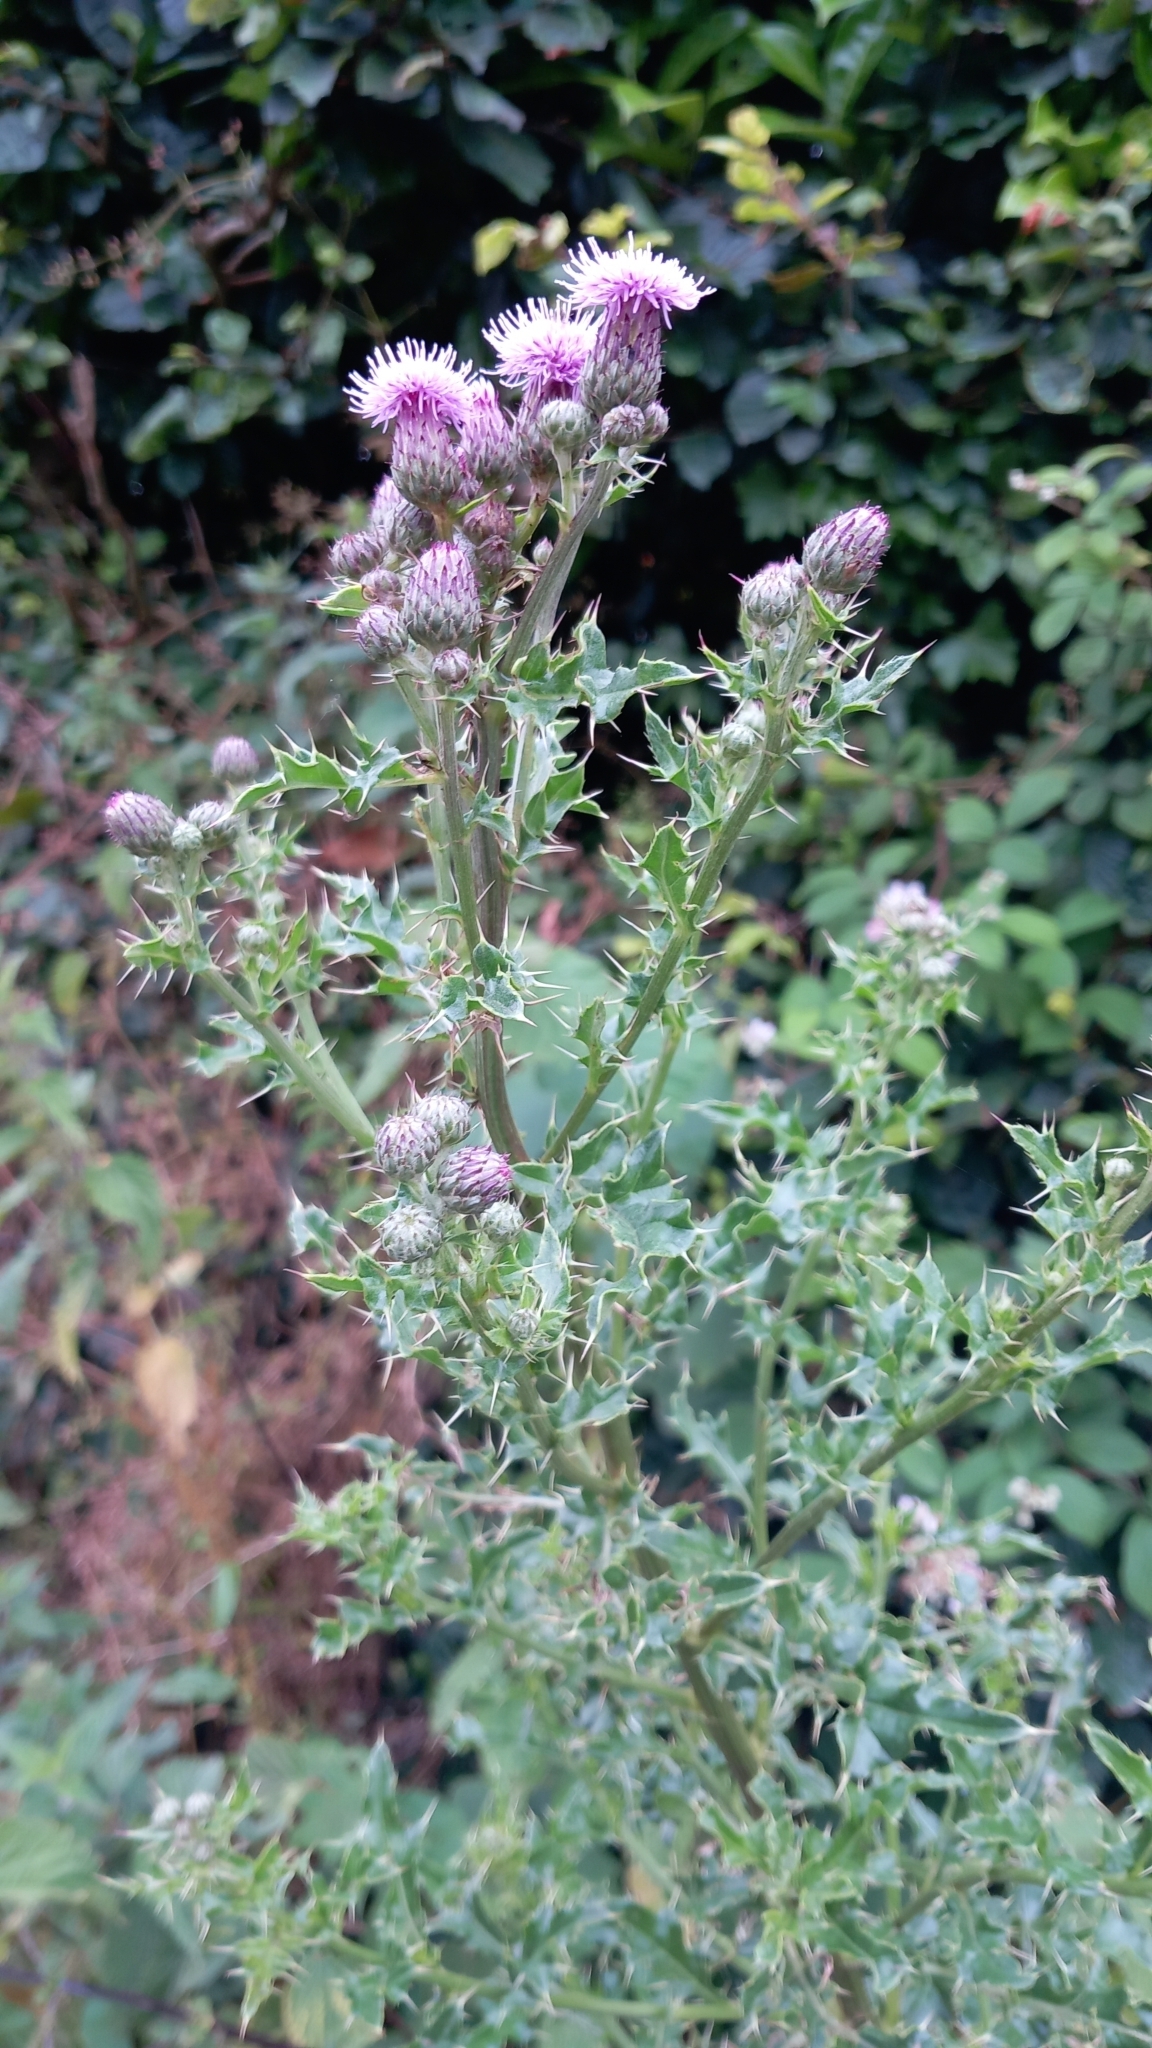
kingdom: Plantae
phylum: Tracheophyta
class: Magnoliopsida
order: Asterales
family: Asteraceae
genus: Cirsium
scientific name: Cirsium arvense
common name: Creeping thistle
